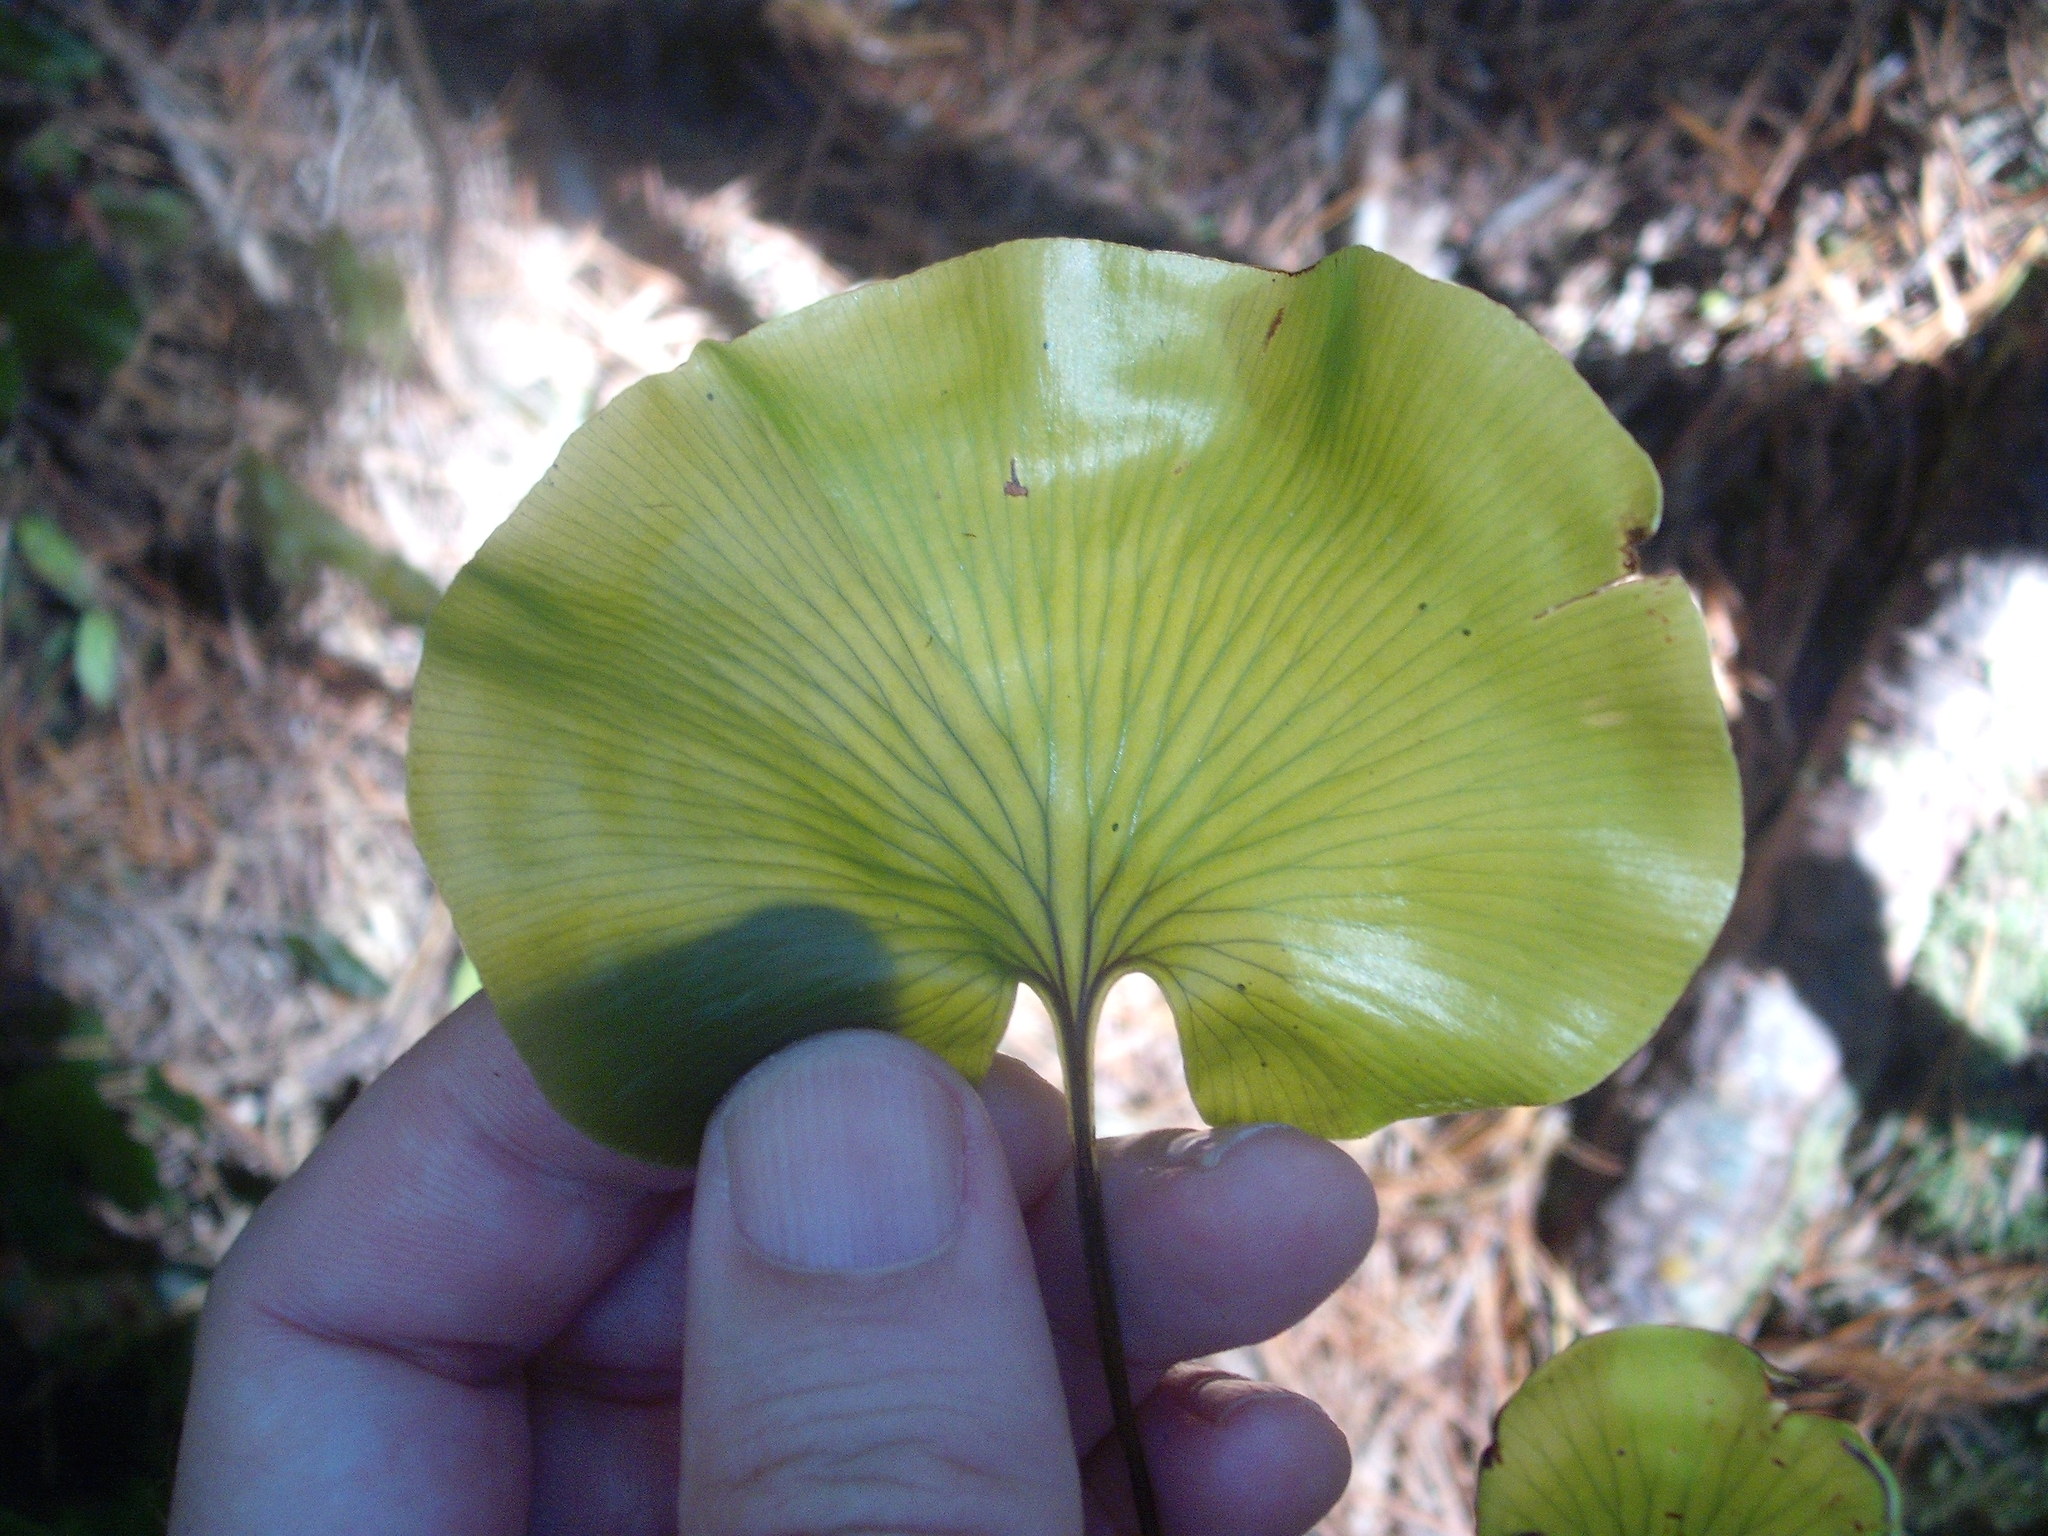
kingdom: Plantae
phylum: Tracheophyta
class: Polypodiopsida
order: Hymenophyllales
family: Hymenophyllaceae
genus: Hymenophyllum
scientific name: Hymenophyllum nephrophyllum
